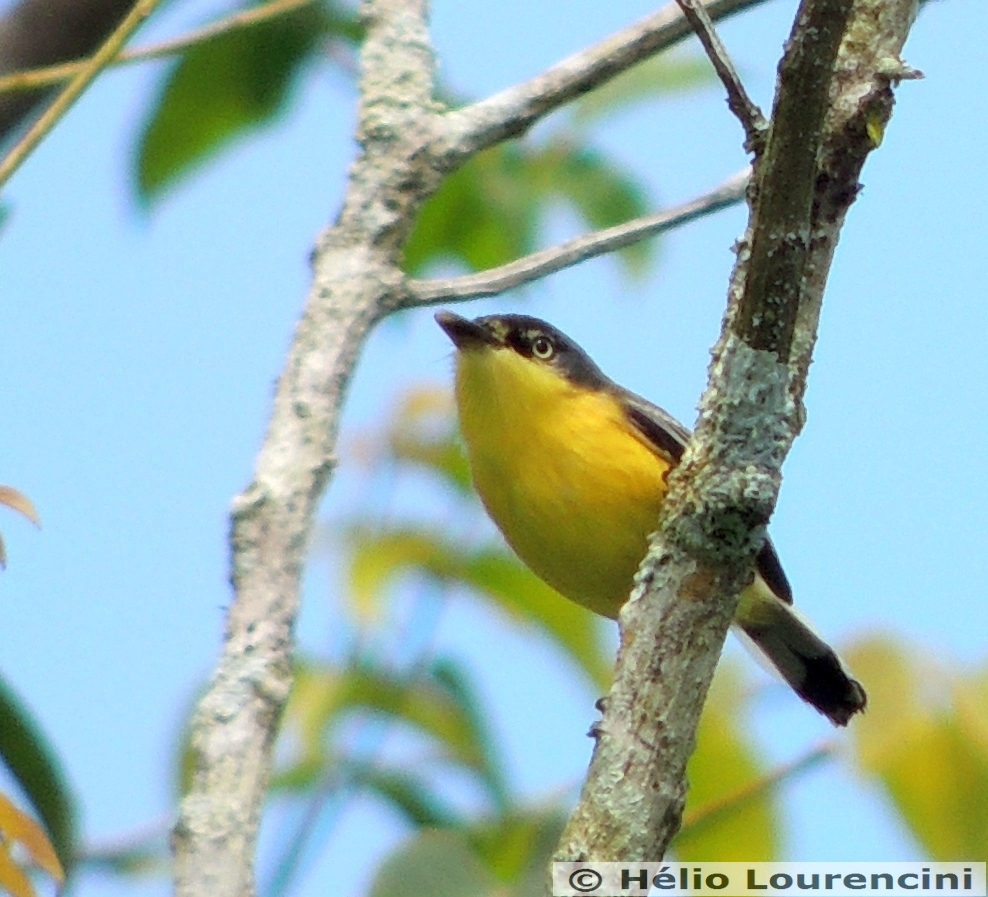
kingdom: Animalia
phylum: Chordata
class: Aves
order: Passeriformes
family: Tyrannidae
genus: Todirostrum
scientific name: Todirostrum cinereum
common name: Common tody-flycatcher
